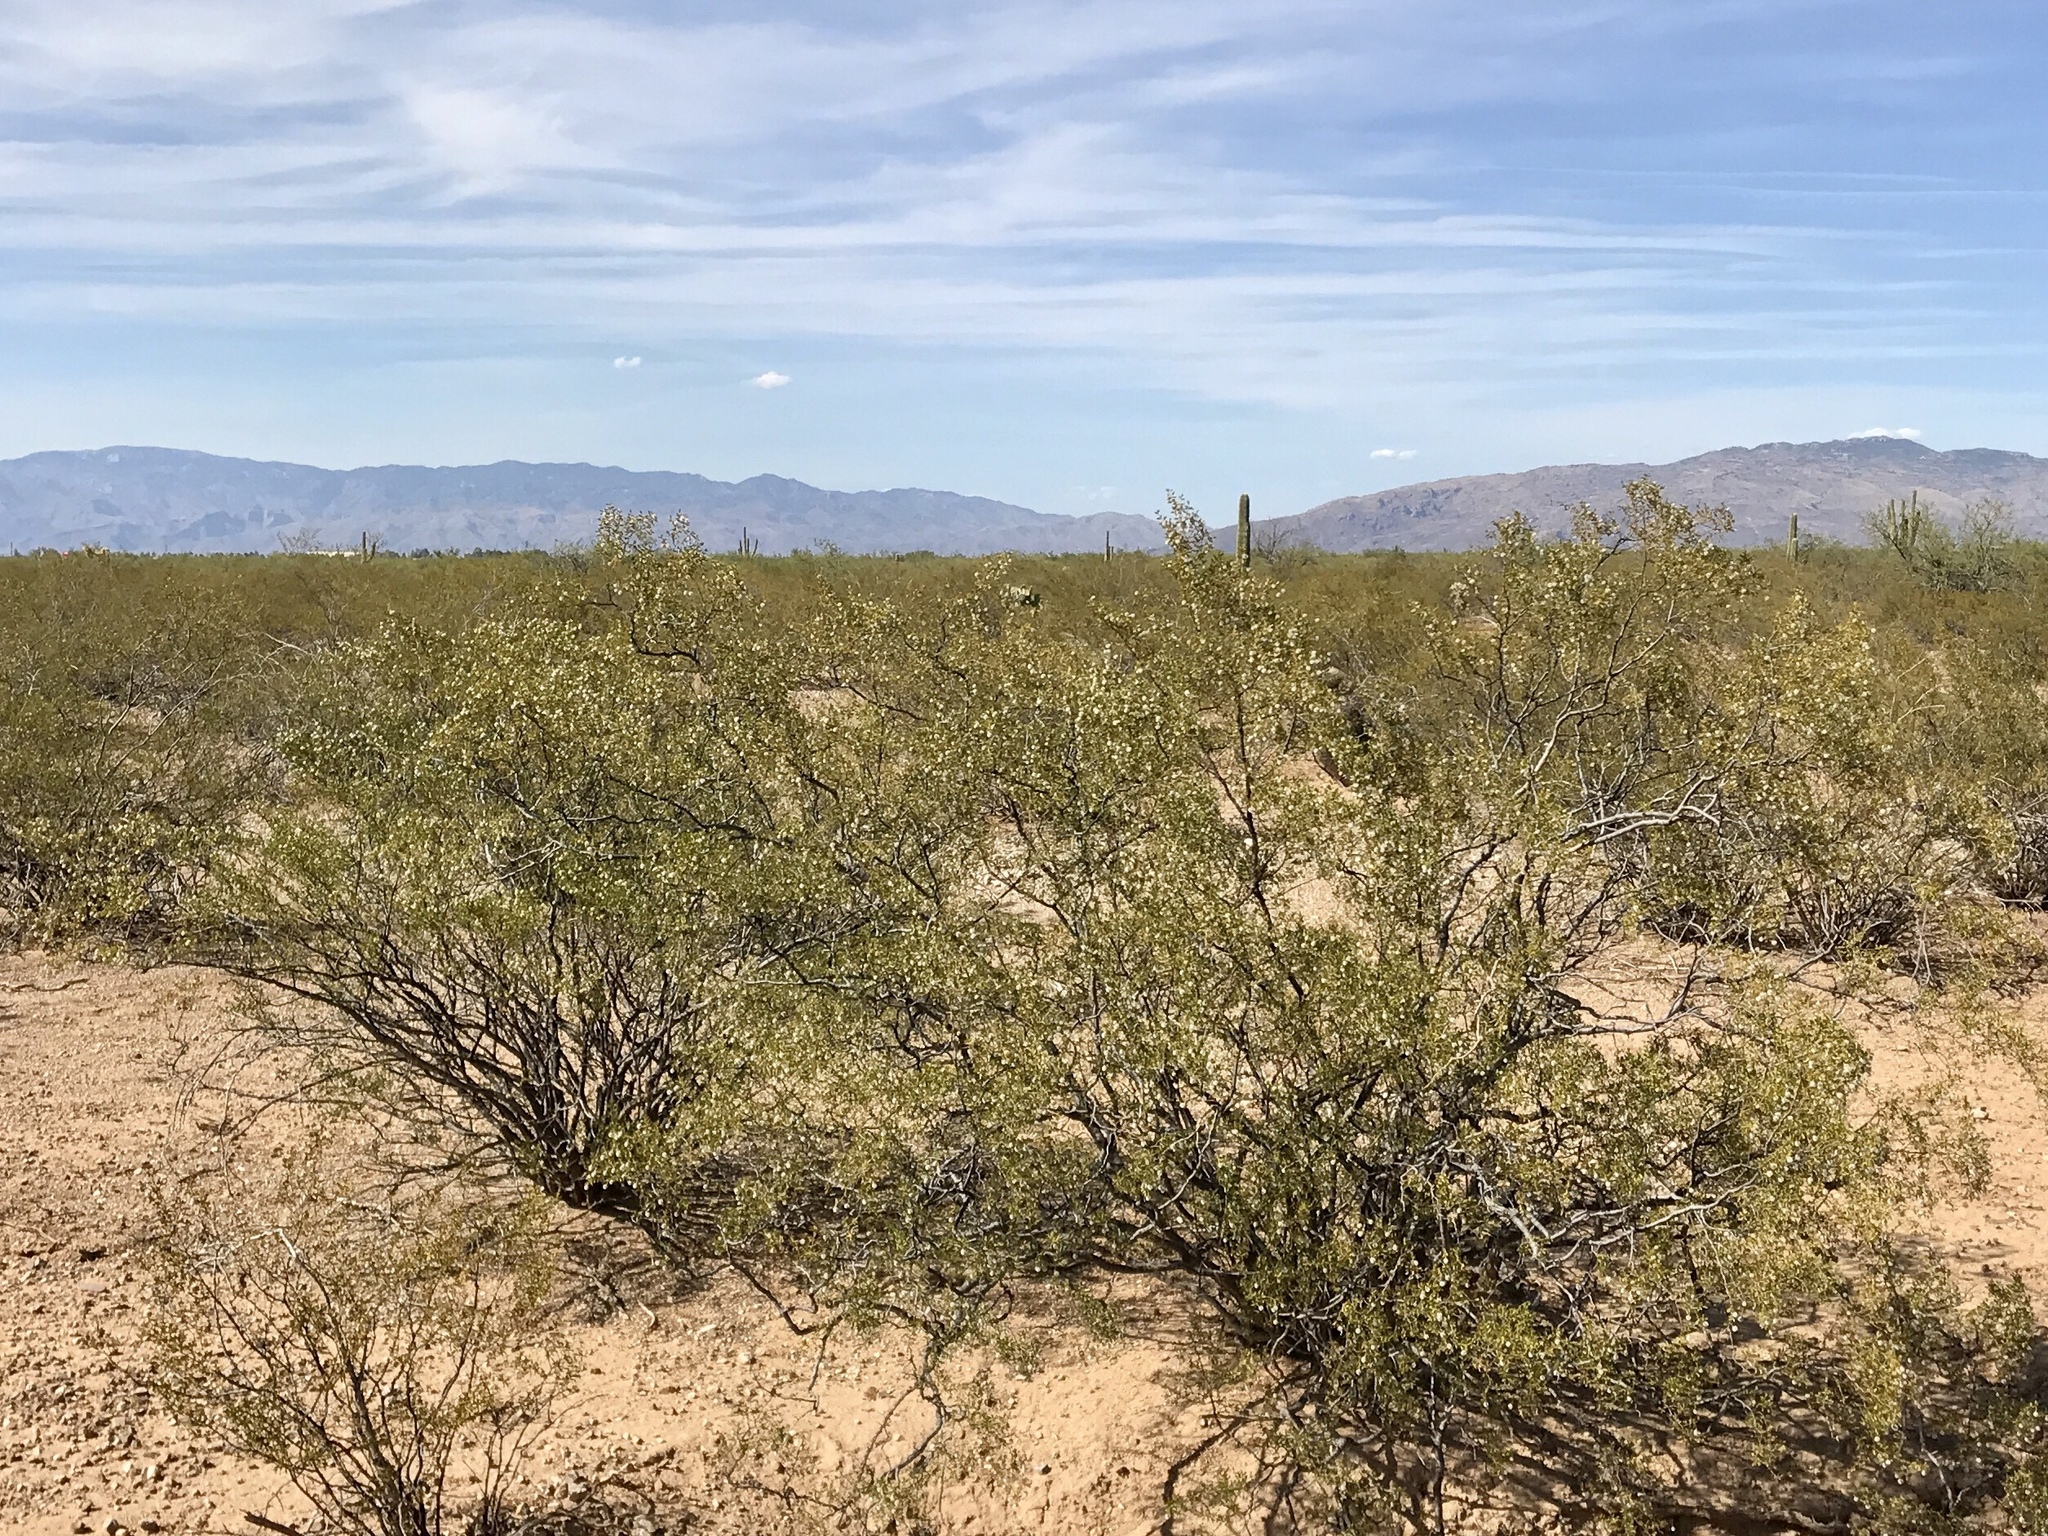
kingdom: Plantae
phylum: Tracheophyta
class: Magnoliopsida
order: Zygophyllales
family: Zygophyllaceae
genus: Larrea
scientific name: Larrea tridentata
